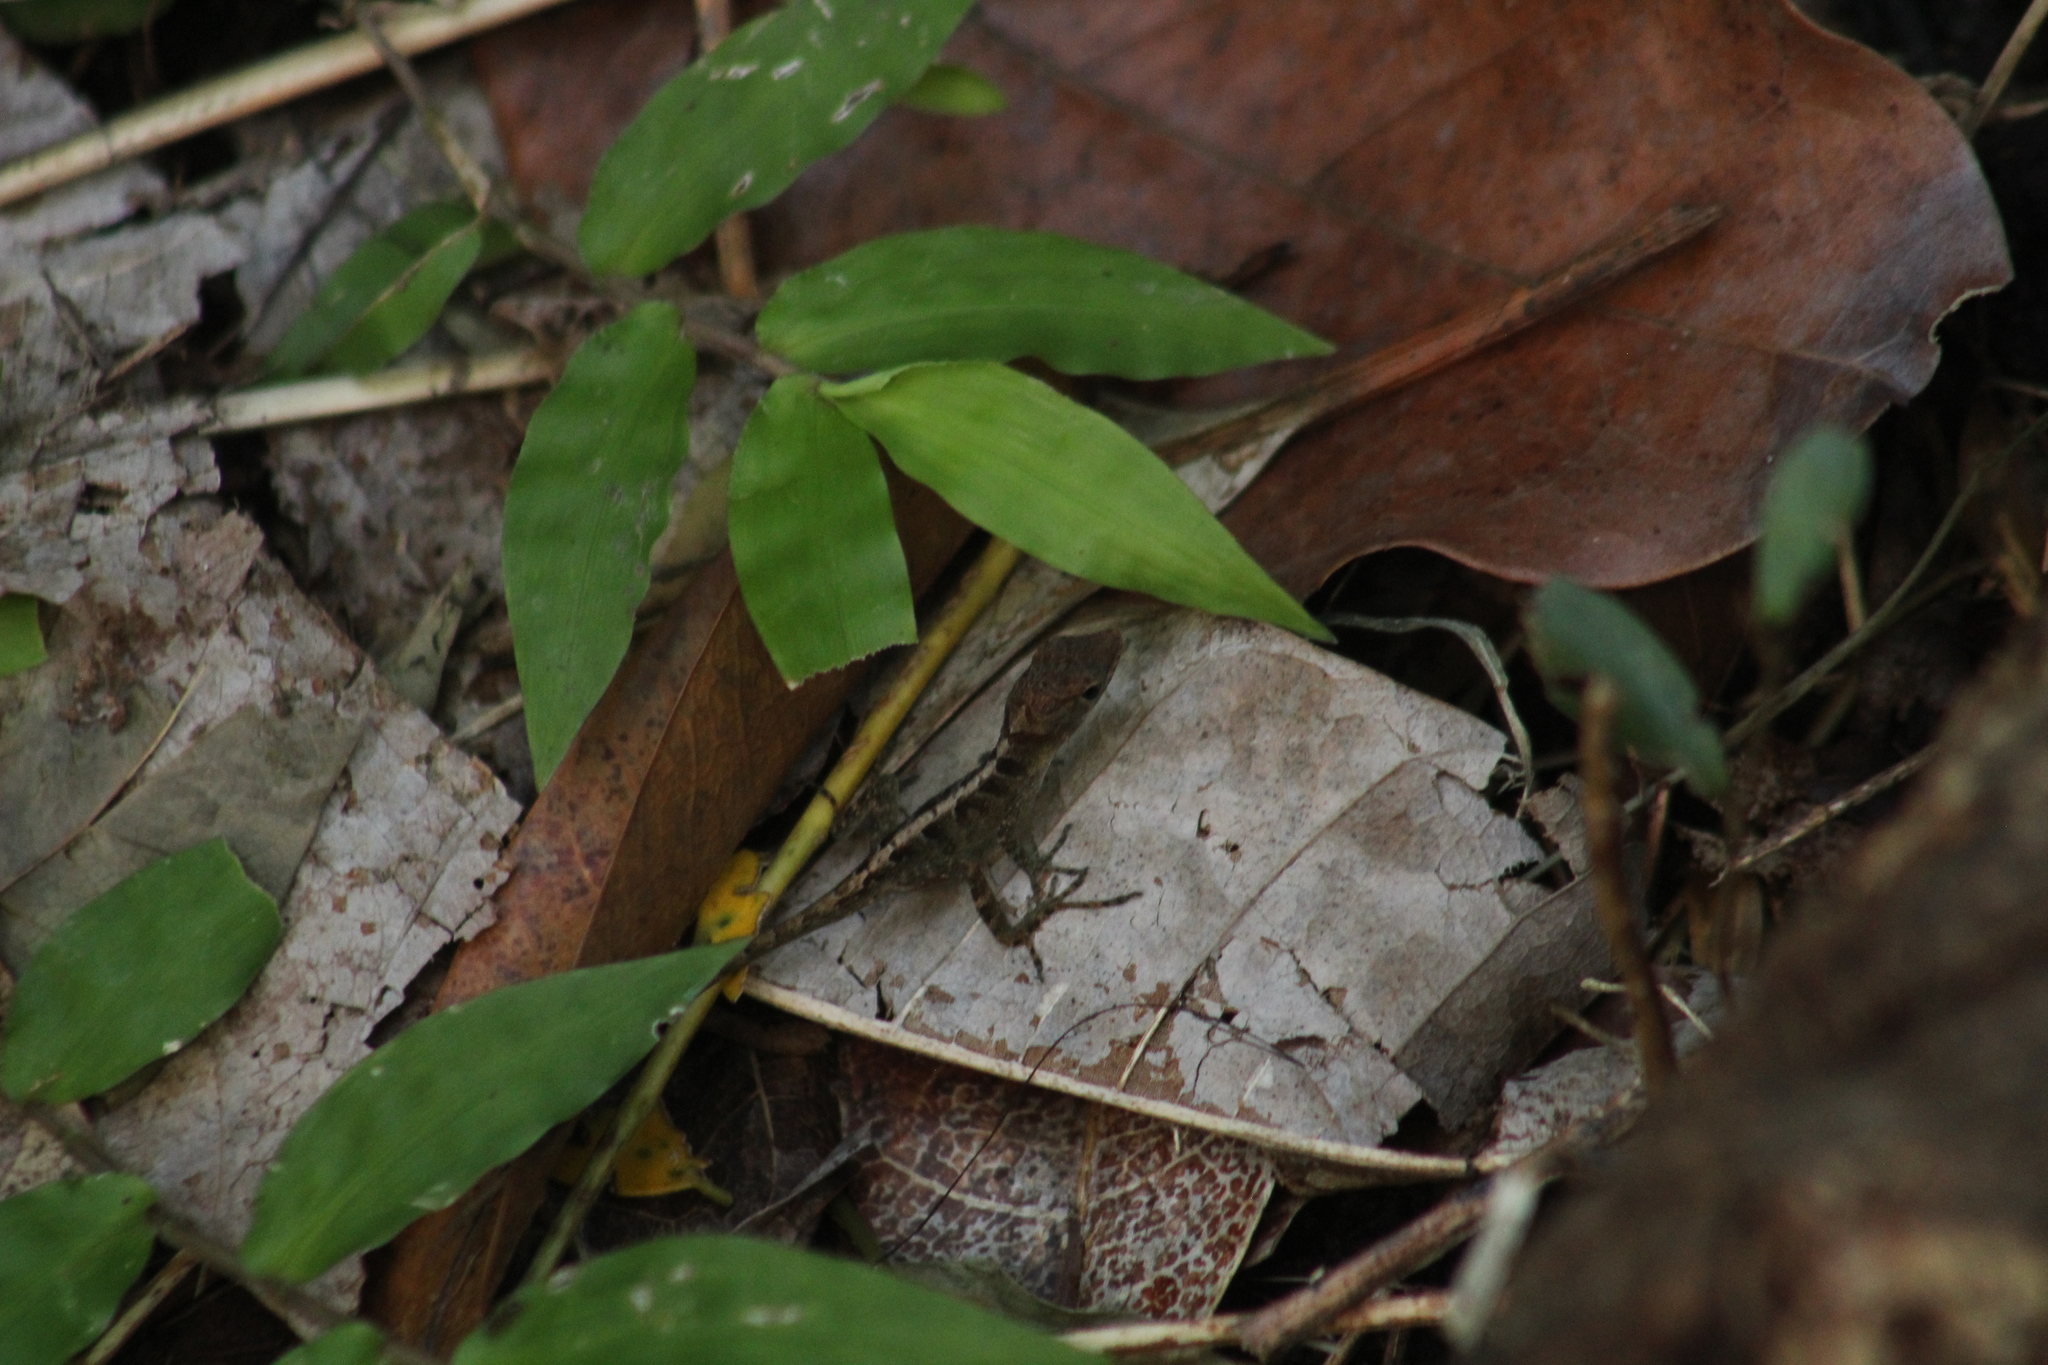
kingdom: Animalia
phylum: Chordata
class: Squamata
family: Dactyloidae
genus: Anolis
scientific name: Anolis pogus
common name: Anguilla bank bush anole
